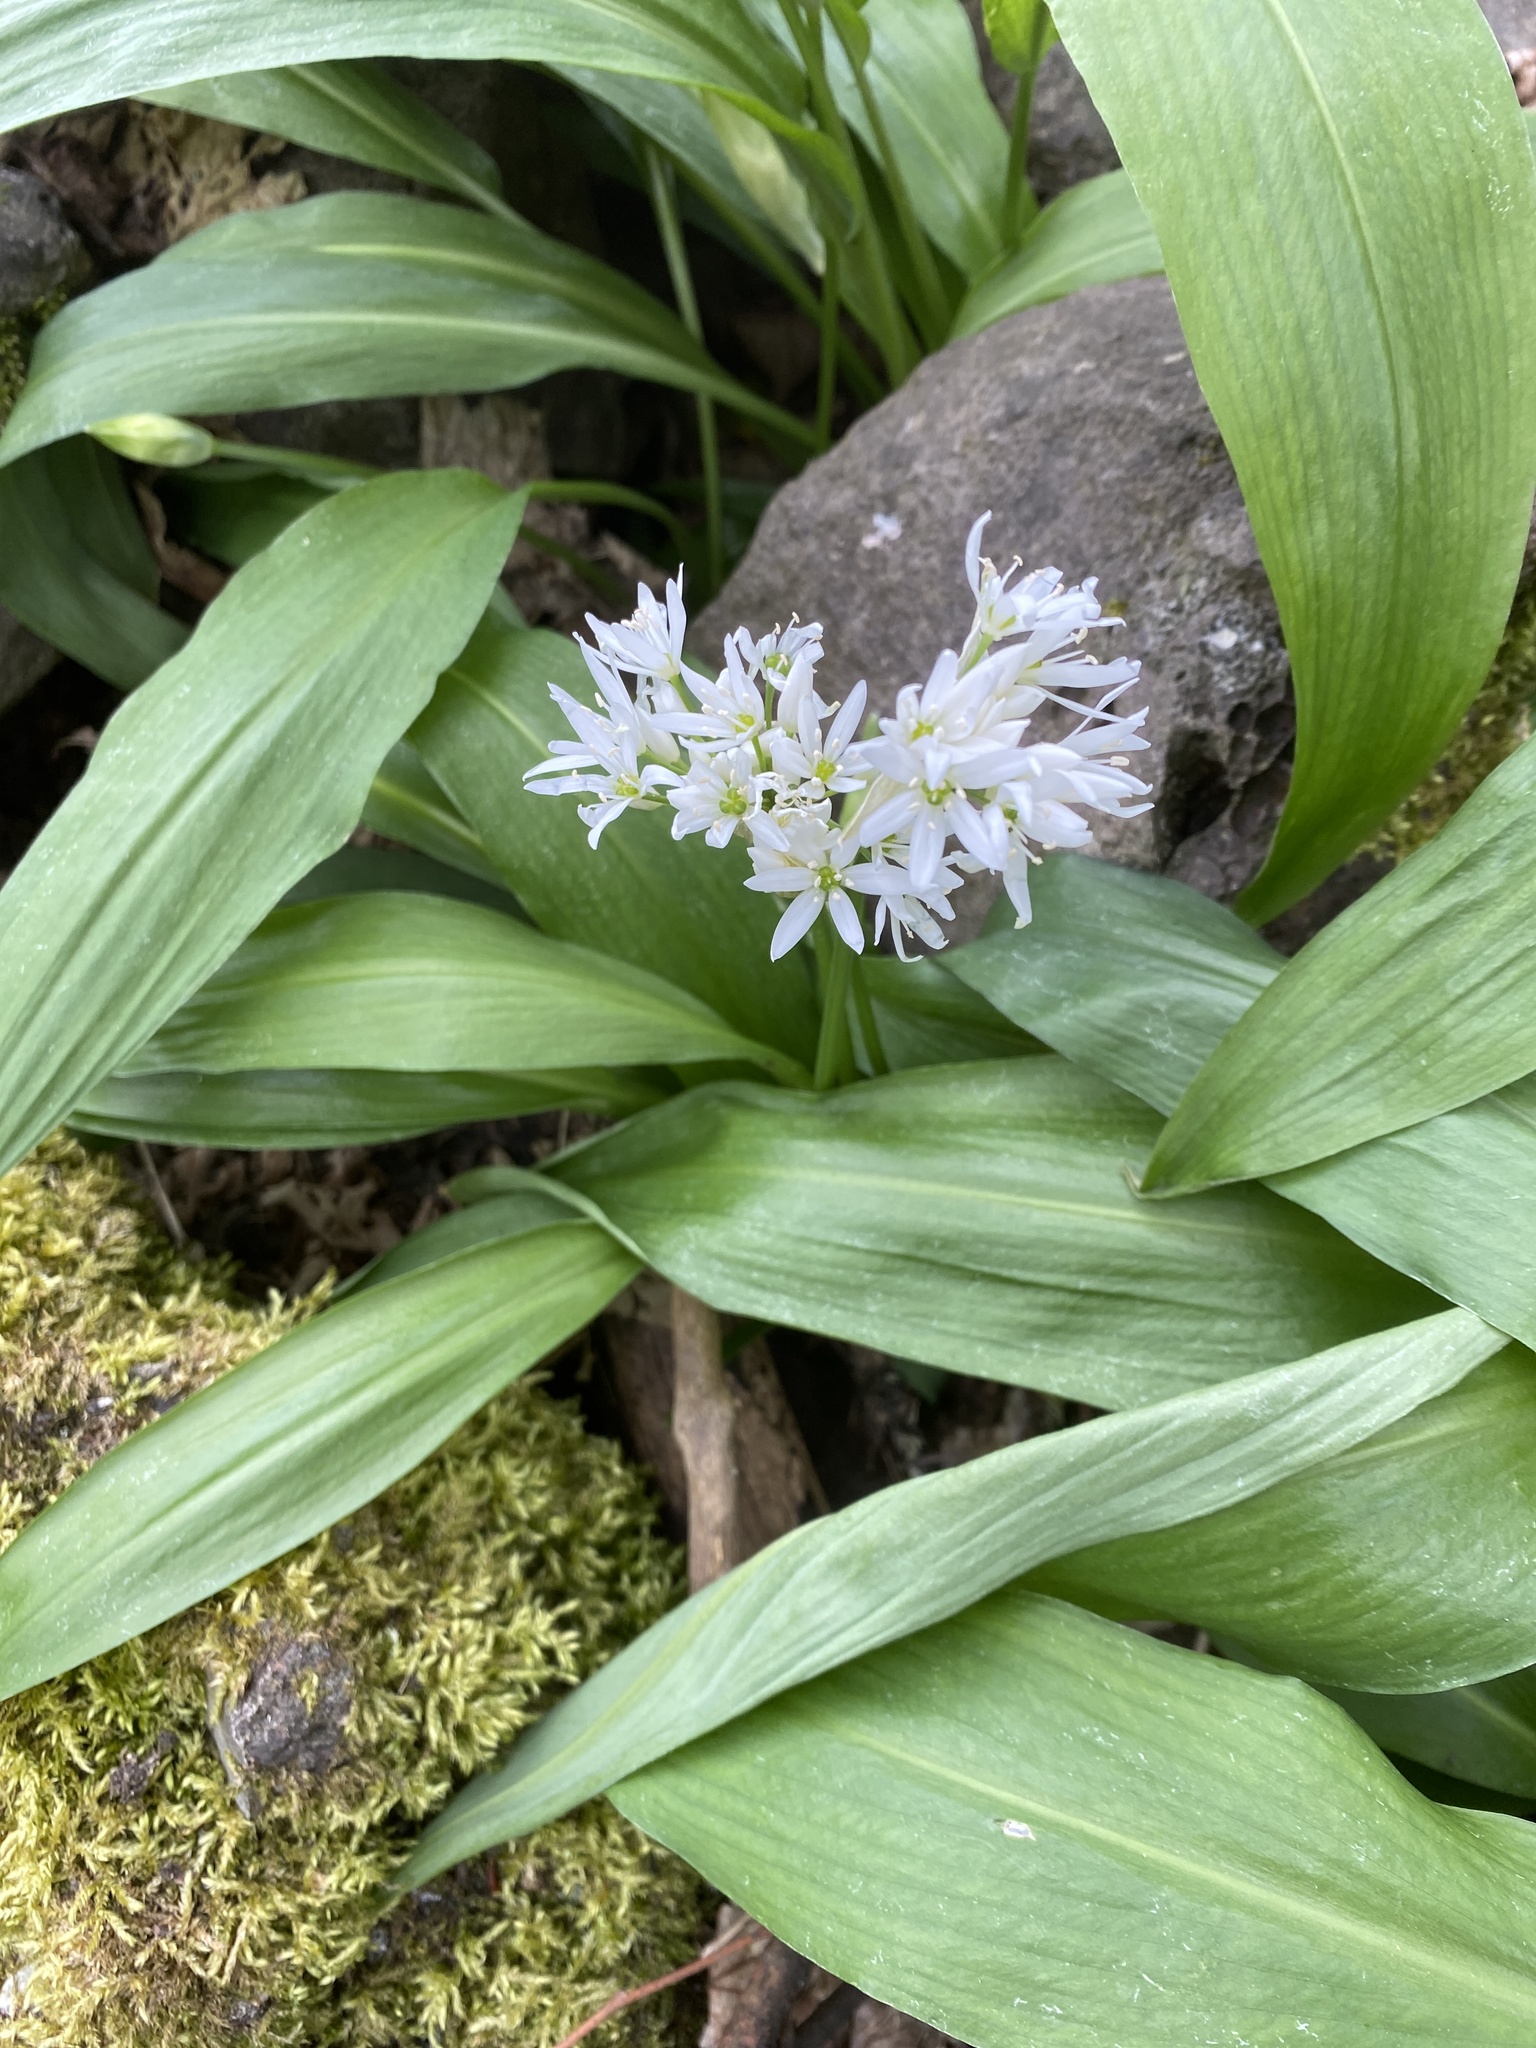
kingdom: Plantae
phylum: Tracheophyta
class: Liliopsida
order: Asparagales
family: Amaryllidaceae
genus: Allium
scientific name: Allium ursinum
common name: Ramsons
